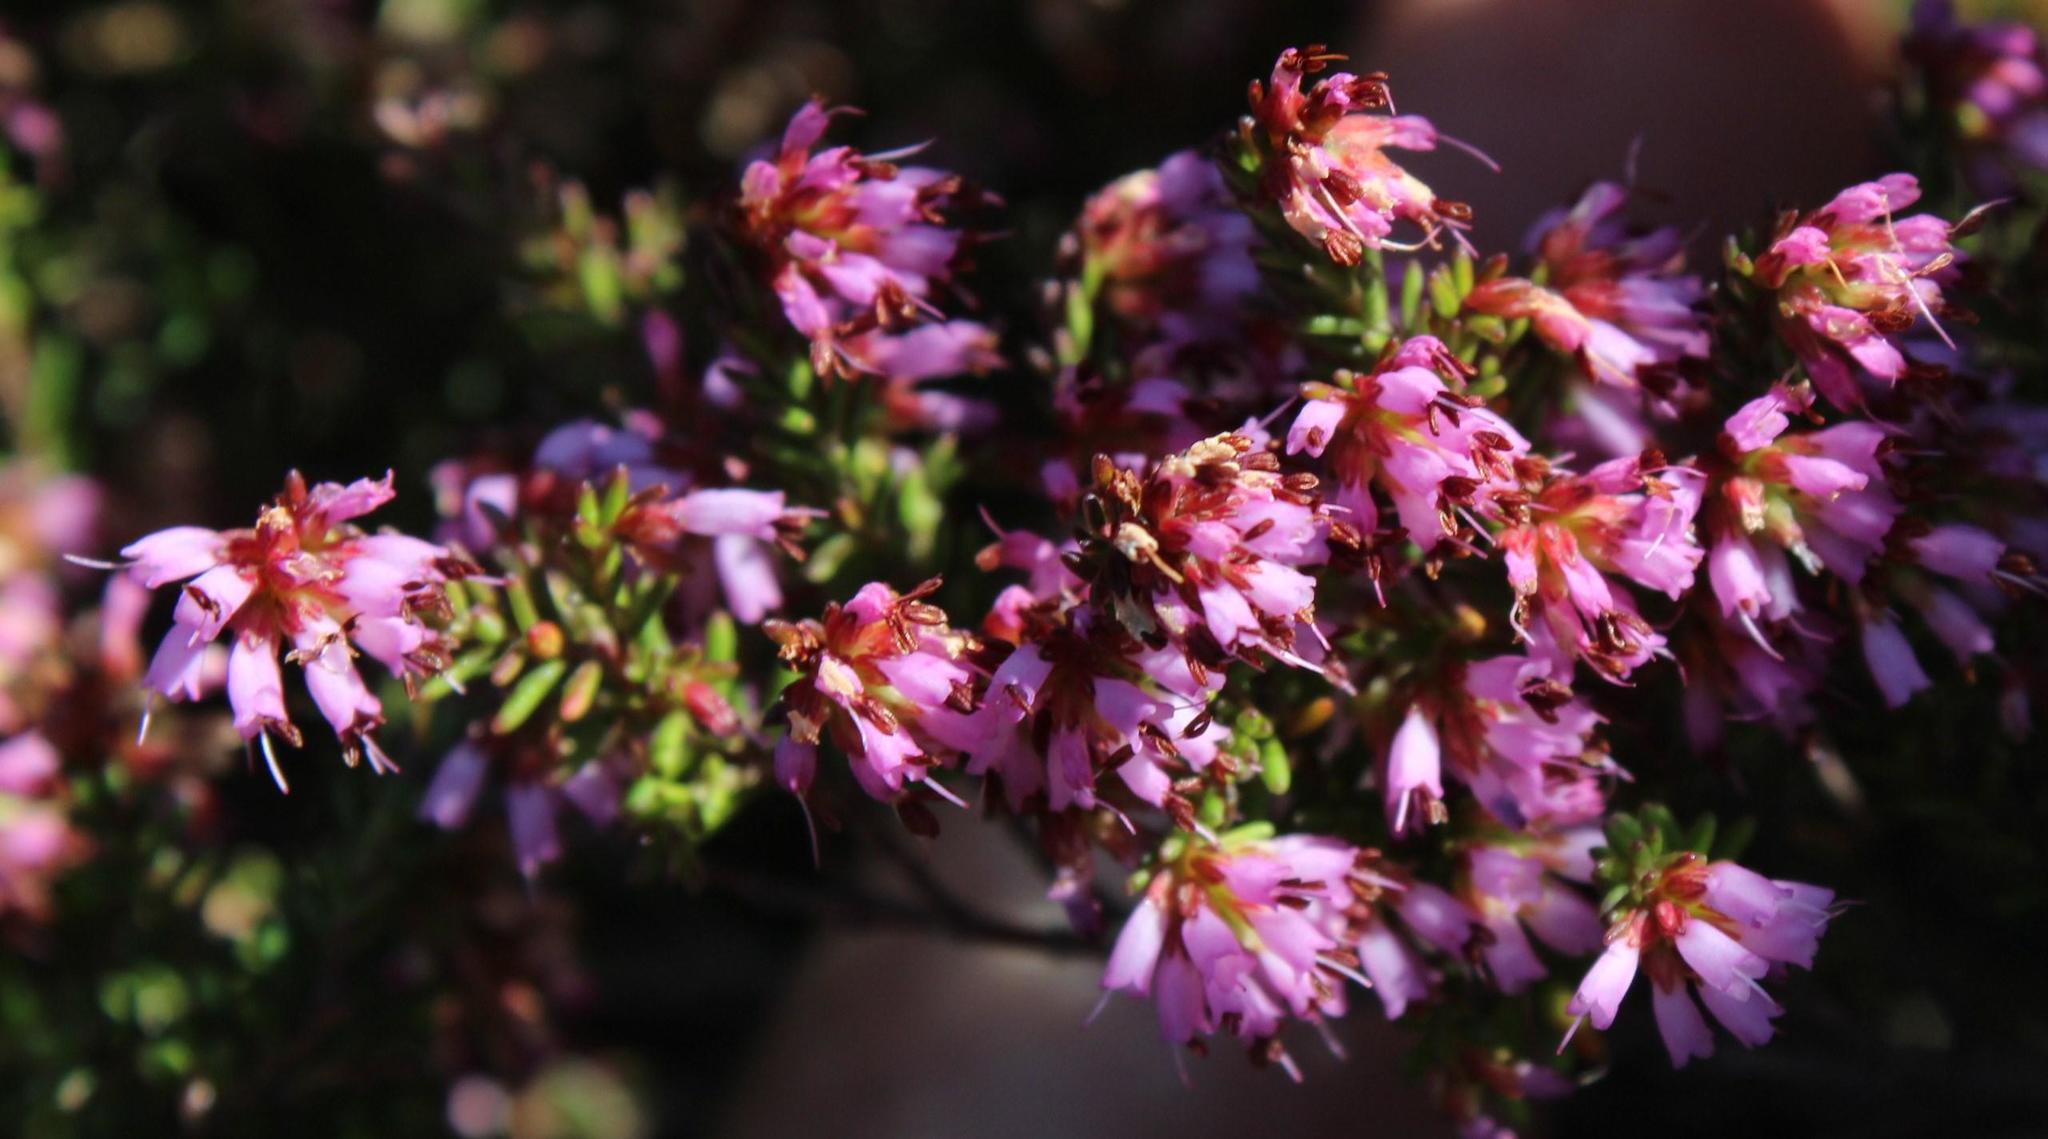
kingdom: Plantae
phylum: Tracheophyta
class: Magnoliopsida
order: Ericales
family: Ericaceae
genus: Erica
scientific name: Erica glabella
